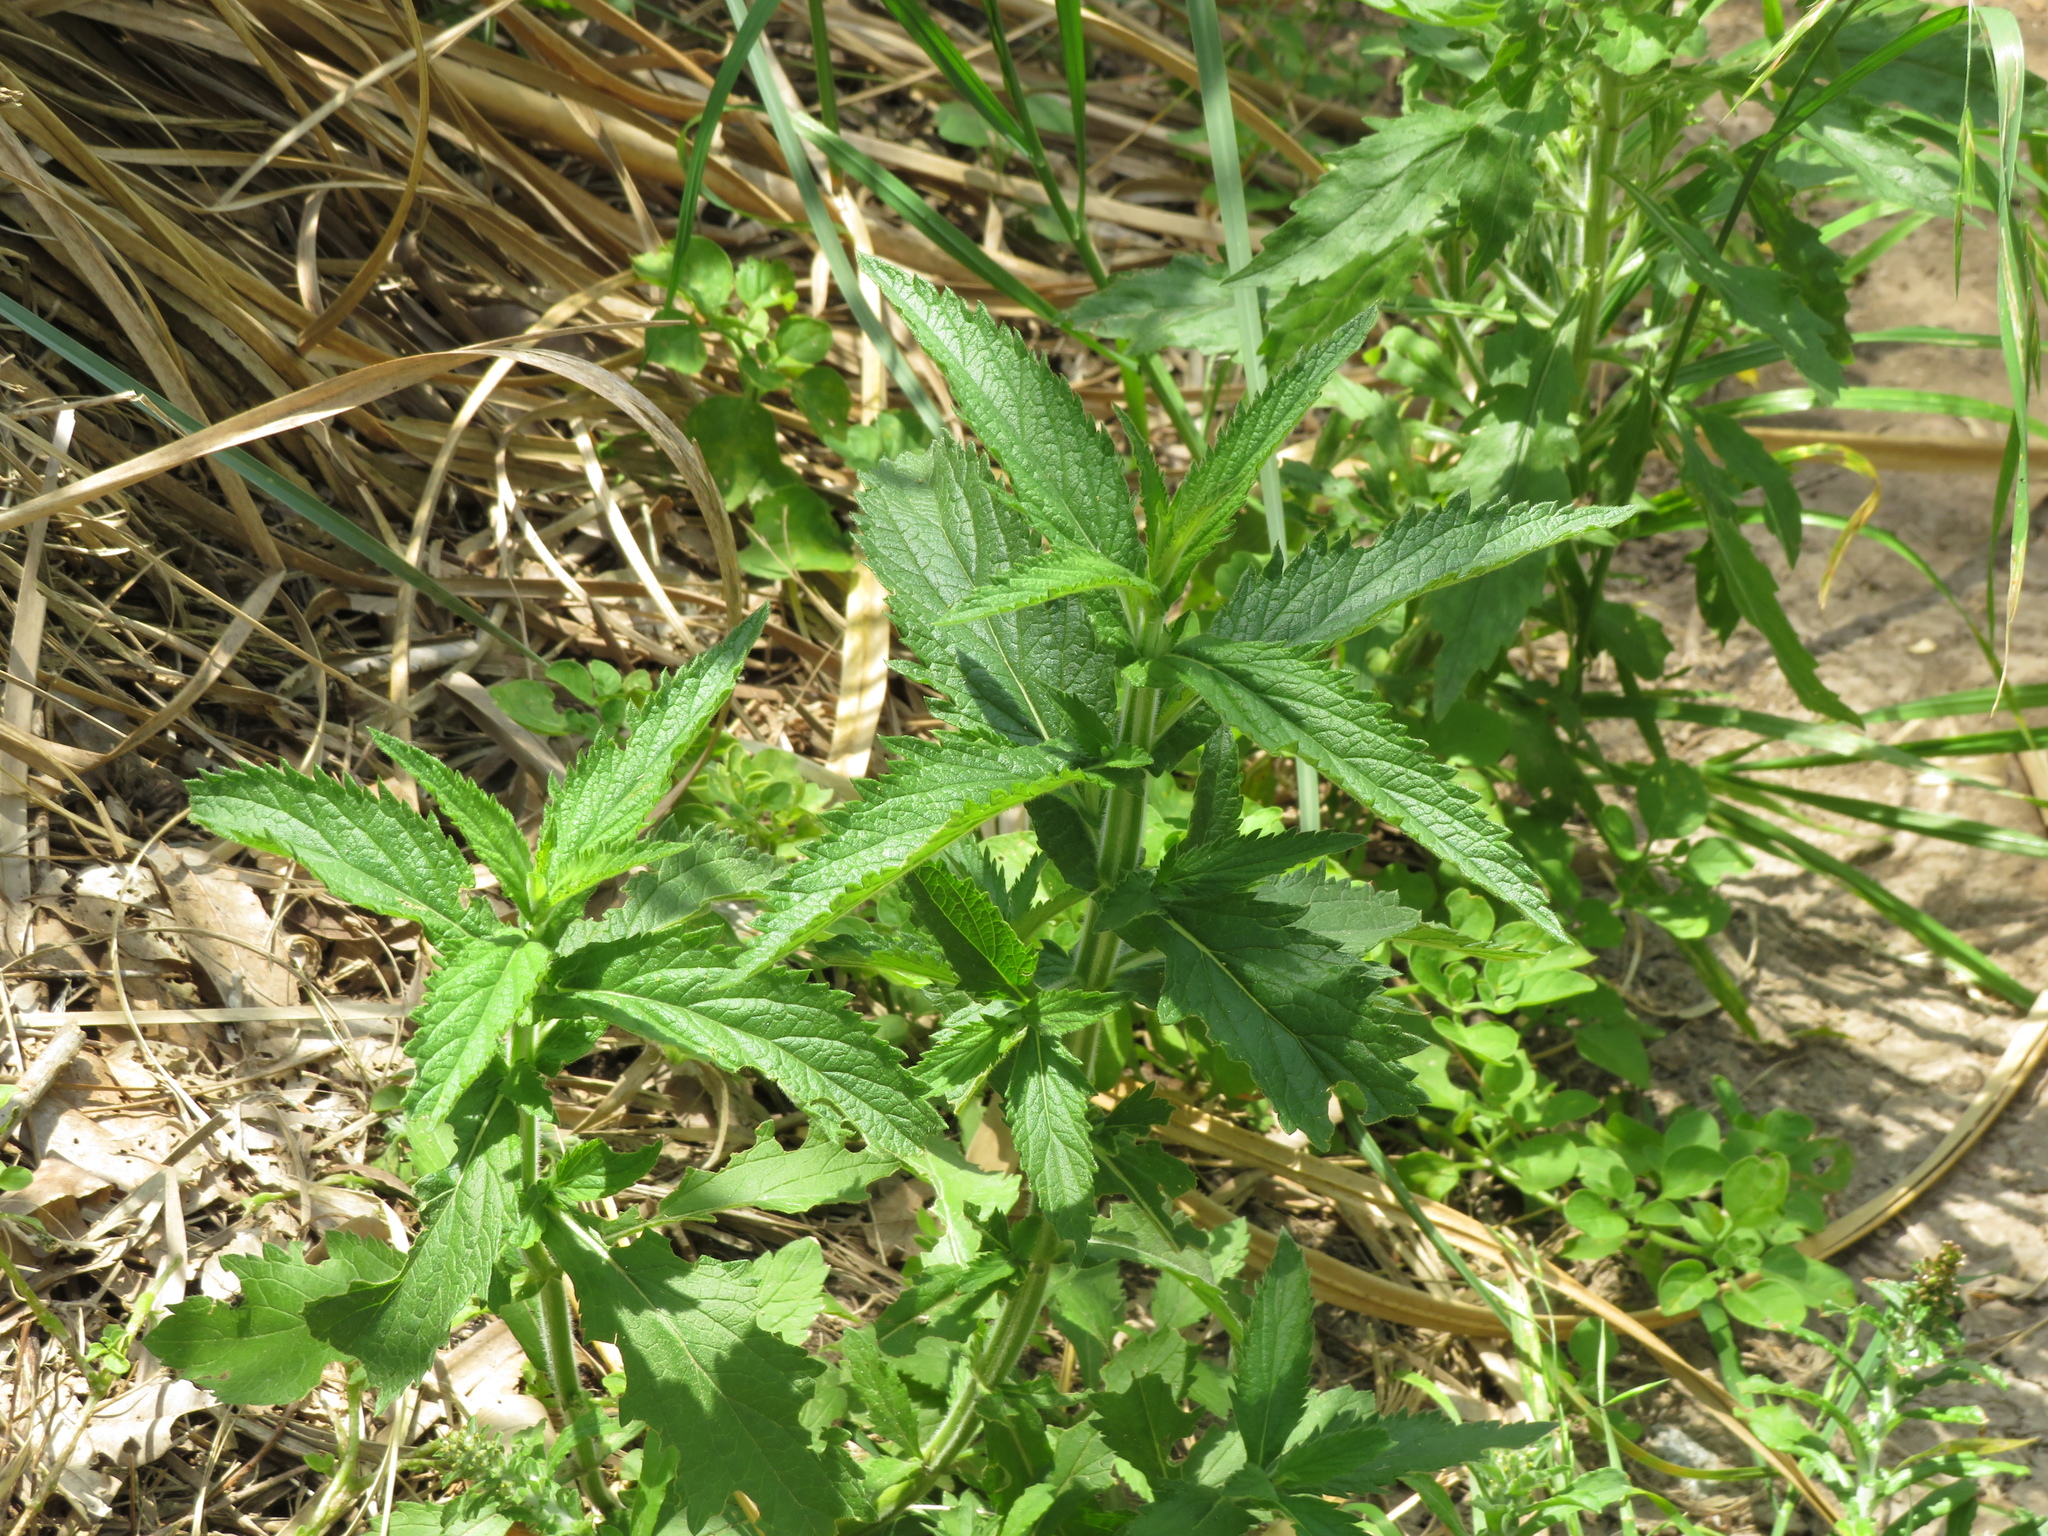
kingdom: Plantae
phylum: Tracheophyta
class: Magnoliopsida
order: Lamiales
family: Verbenaceae
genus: Verbena
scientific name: Verbena bonariensis
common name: Purpletop vervain
